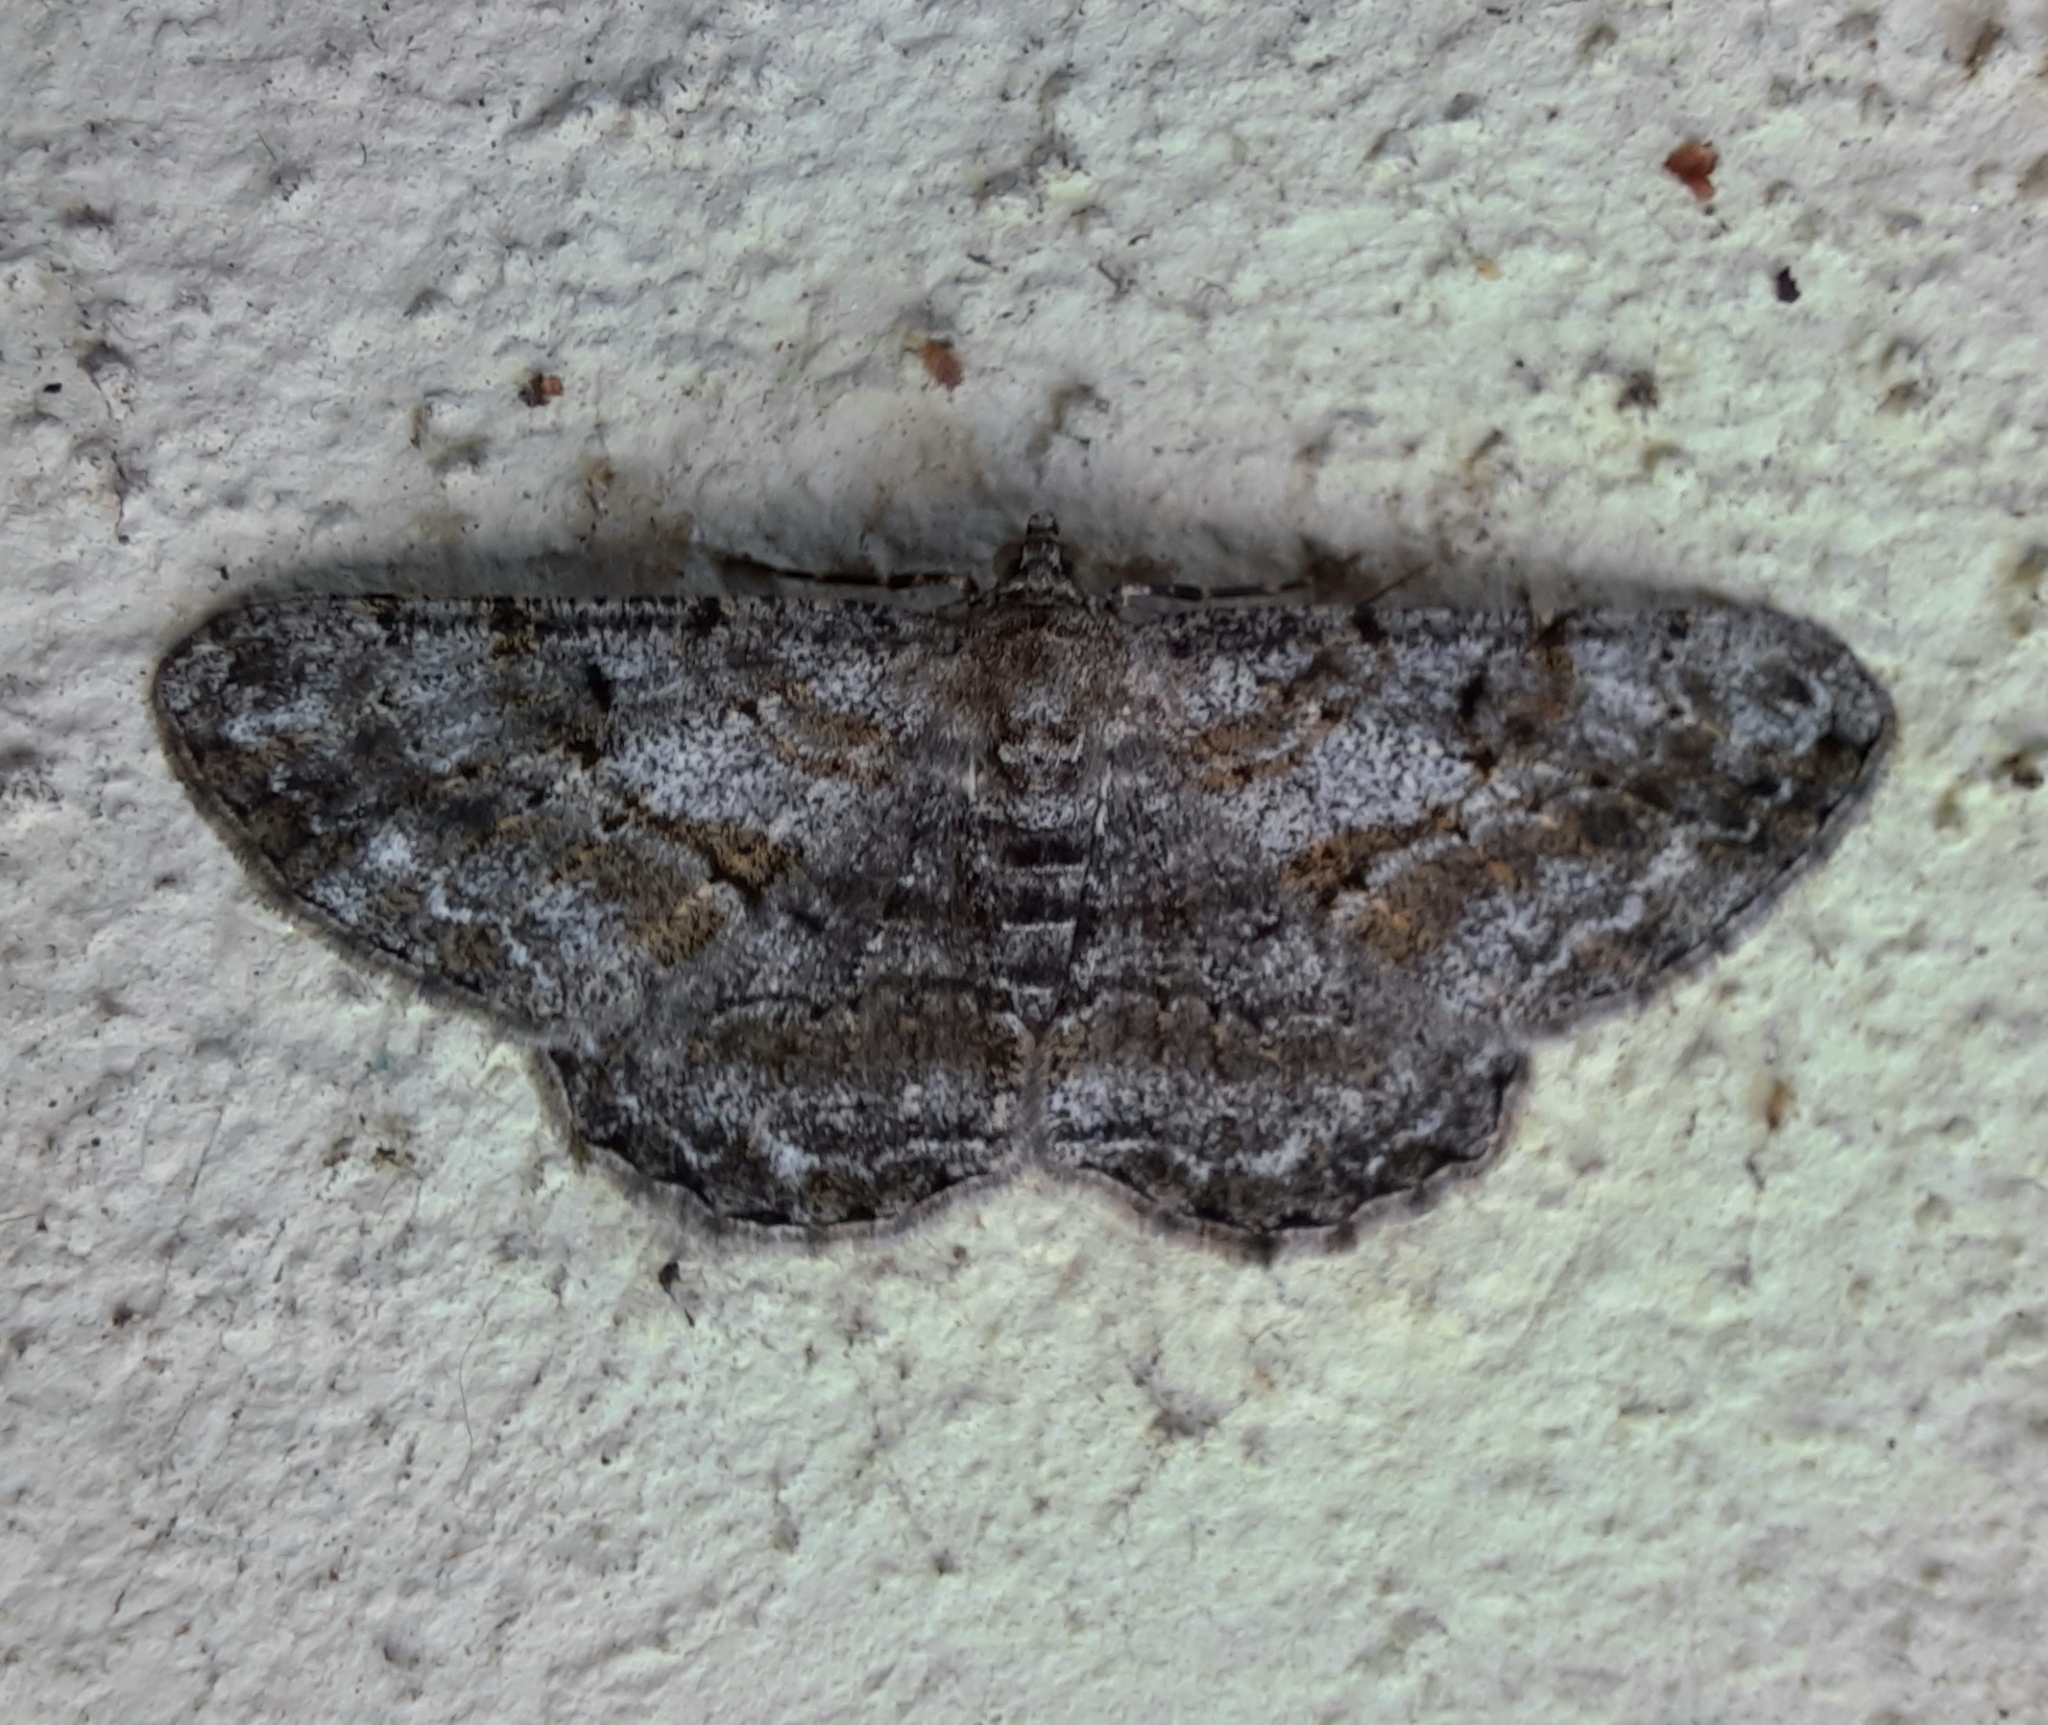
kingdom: Animalia
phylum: Arthropoda
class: Insecta
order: Lepidoptera
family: Geometridae
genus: Peribatodes
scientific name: Peribatodes rhomboidaria
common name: Willow beauty
